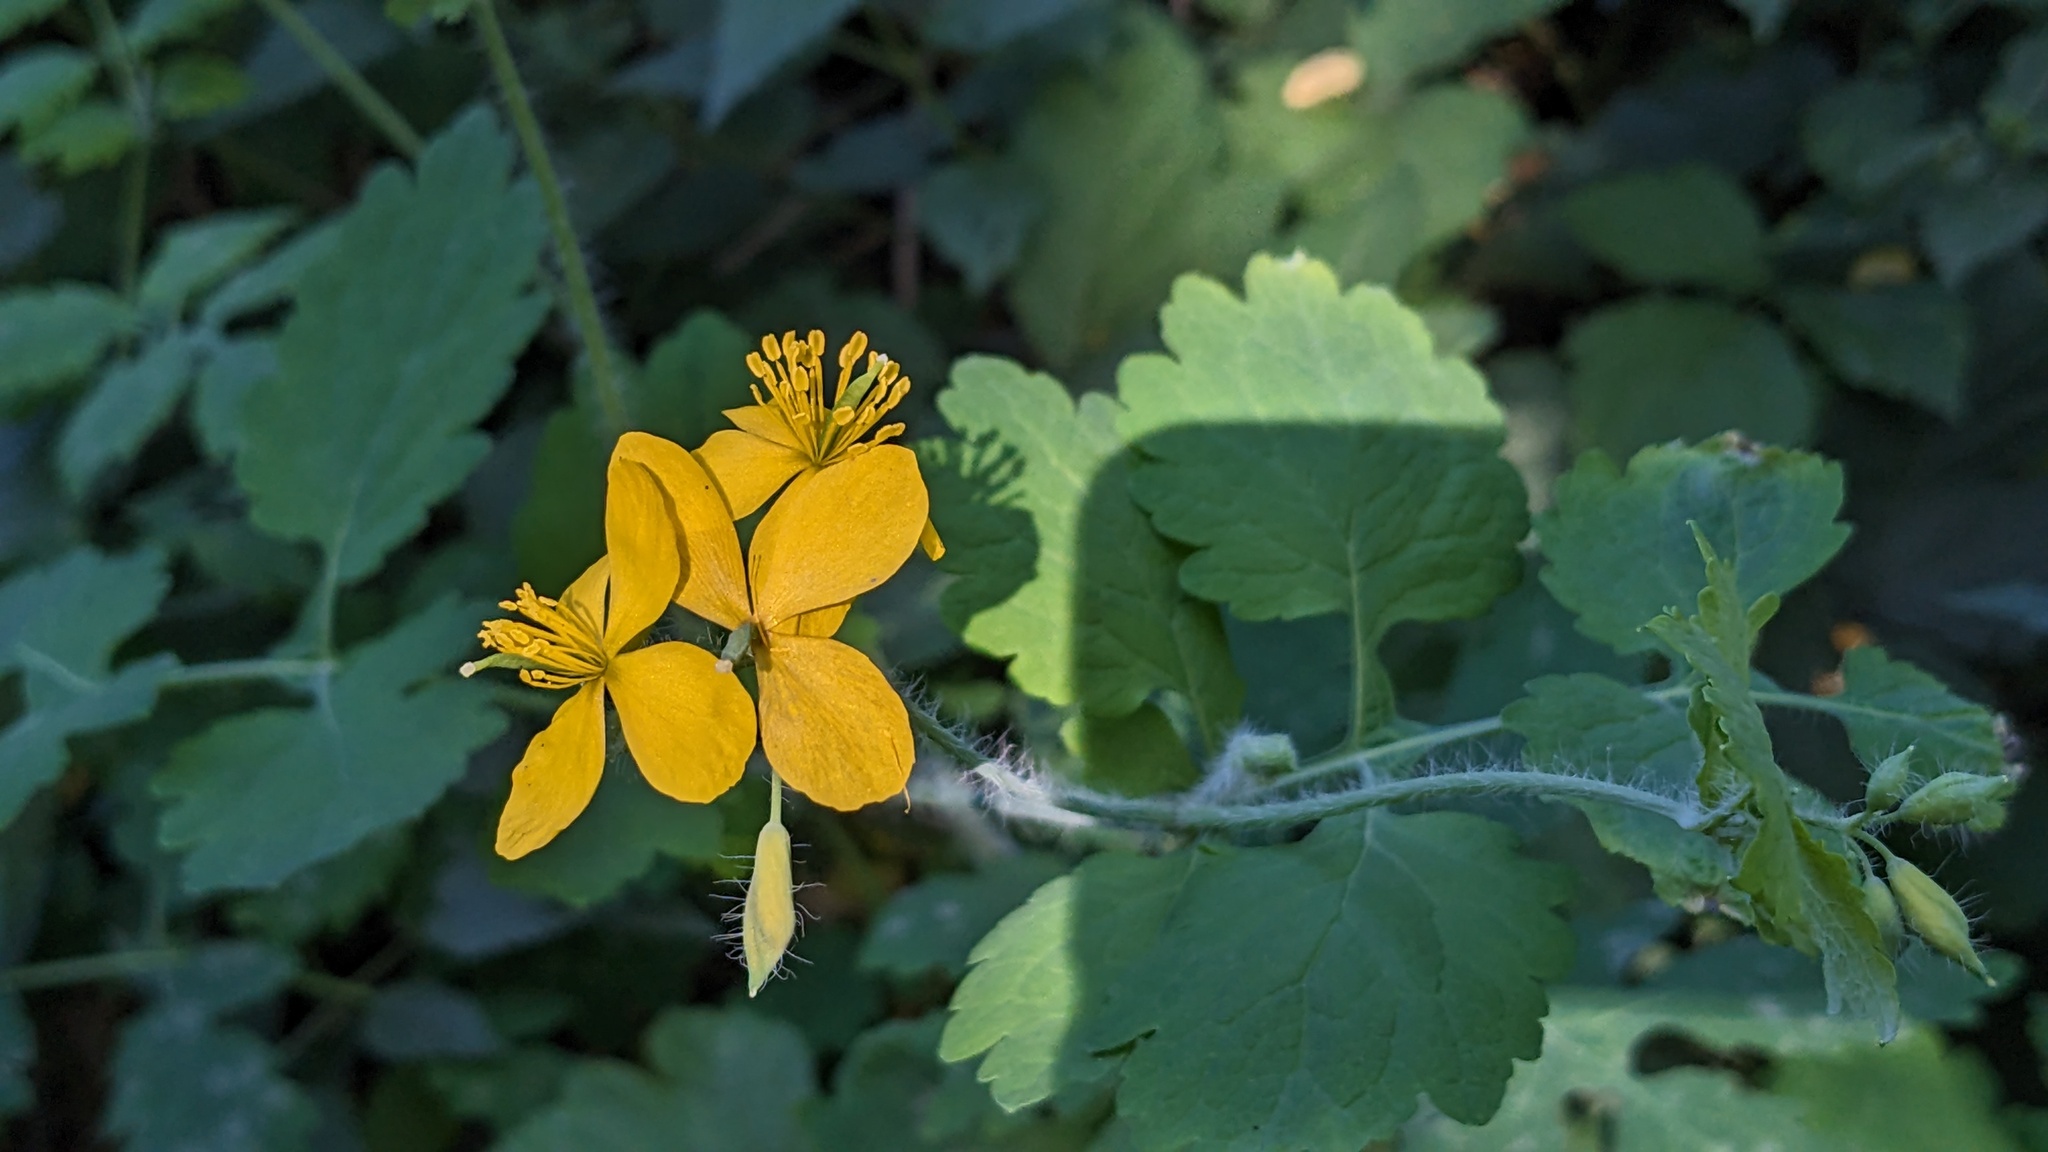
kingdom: Plantae
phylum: Tracheophyta
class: Magnoliopsida
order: Ranunculales
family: Papaveraceae
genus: Chelidonium
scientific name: Chelidonium majus
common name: Greater celandine
